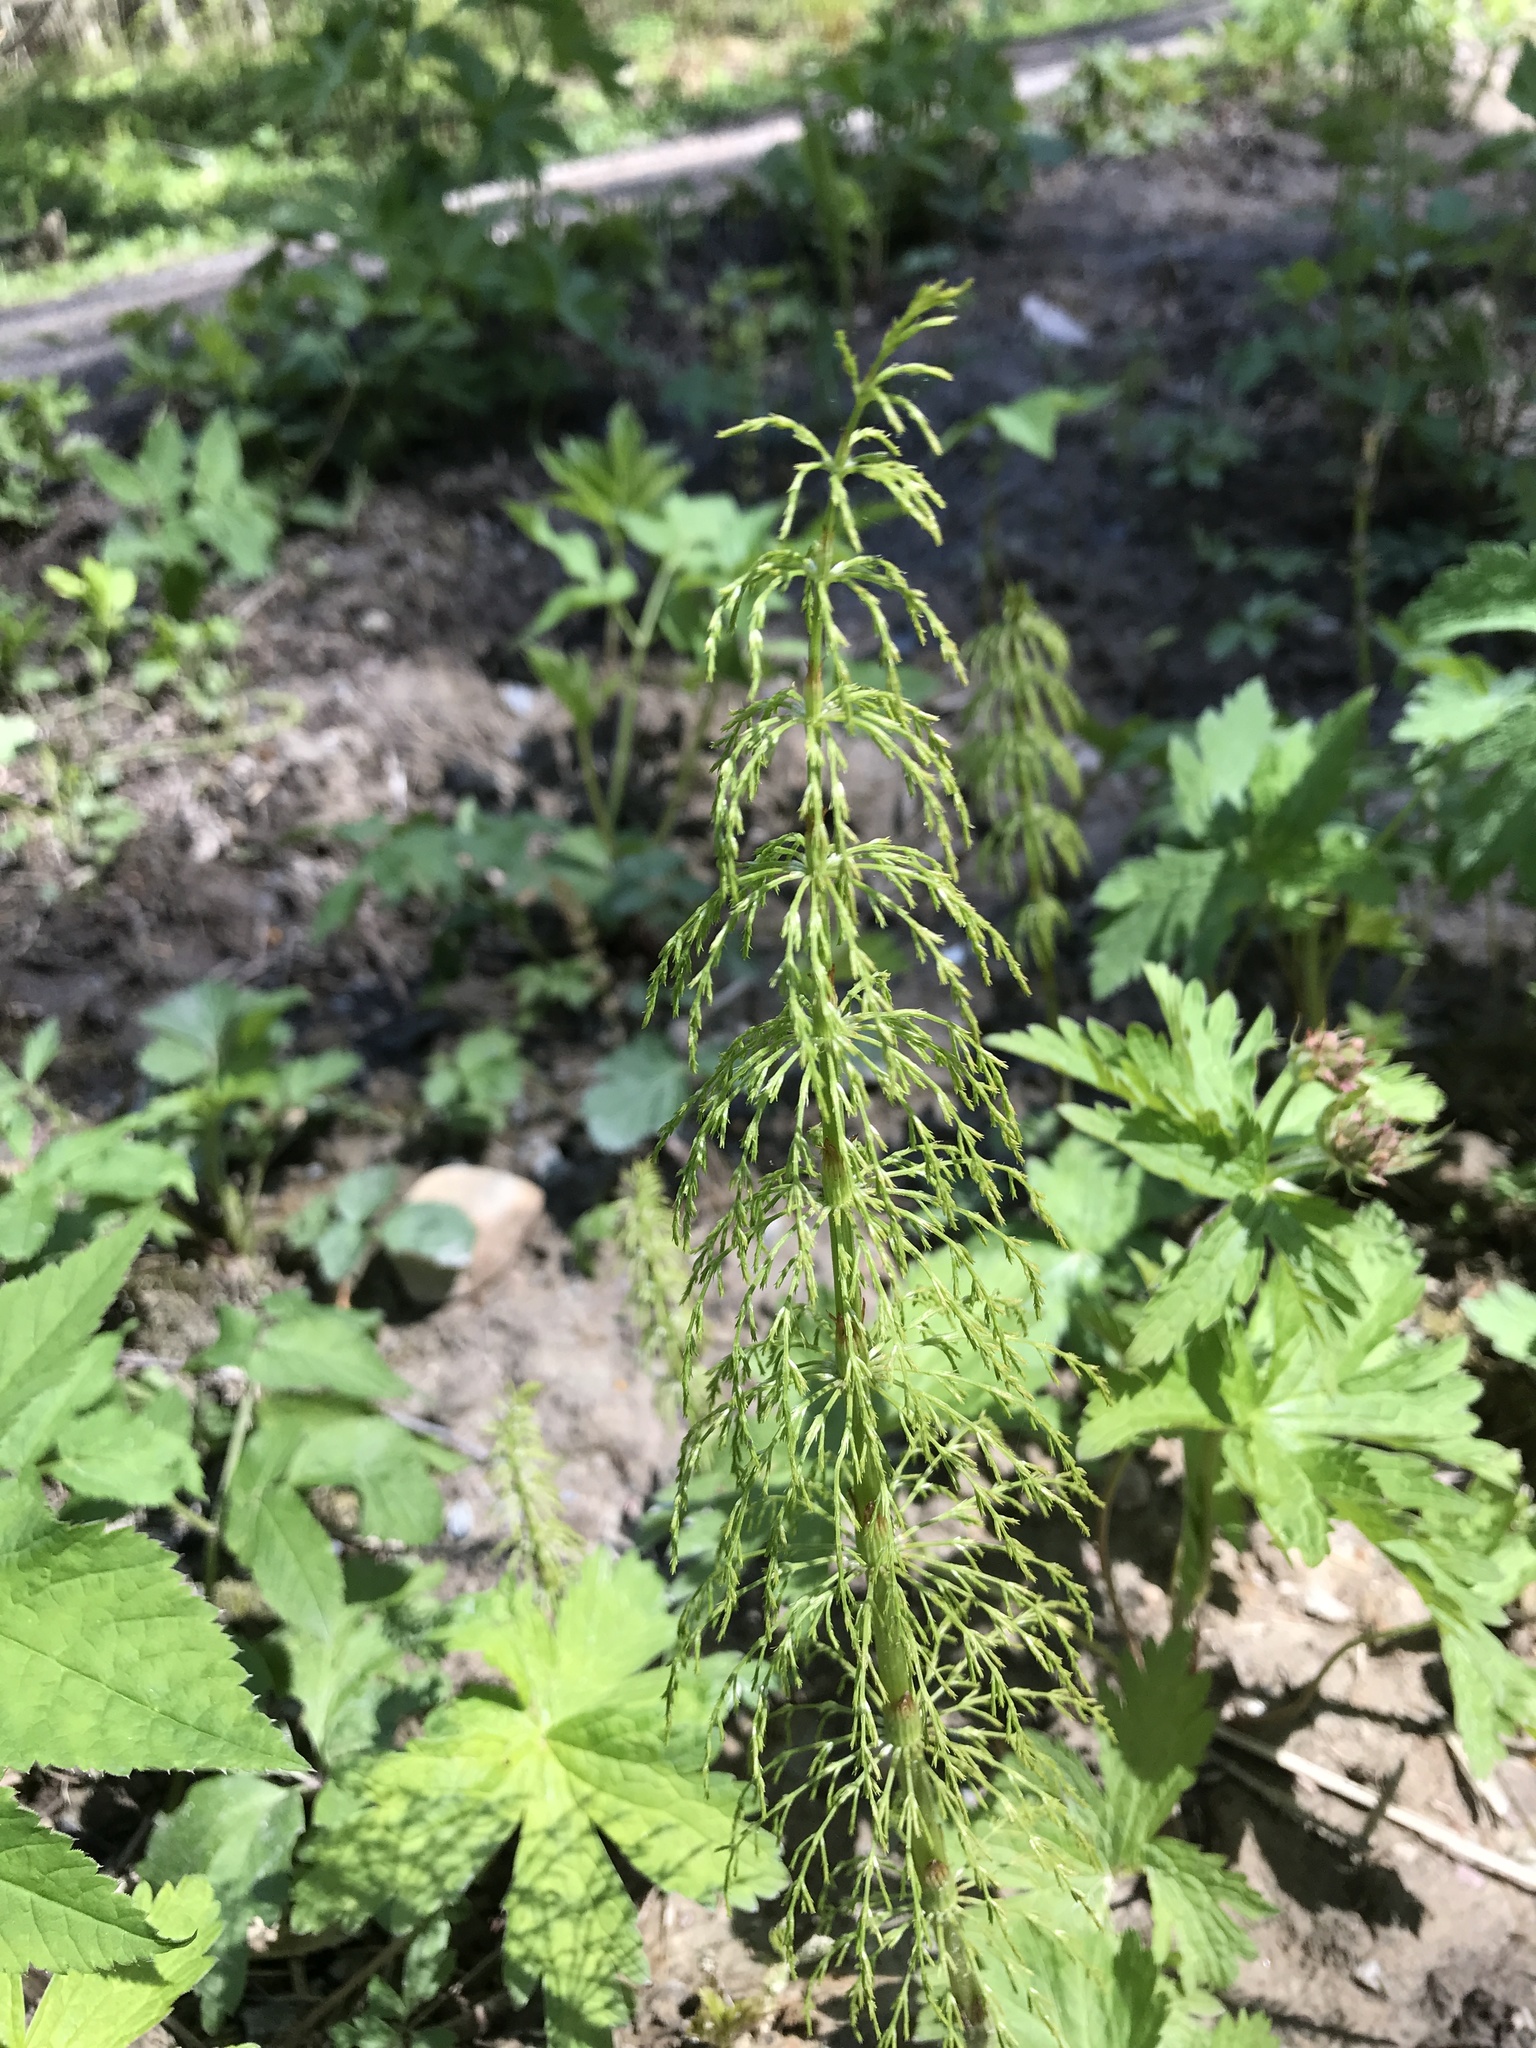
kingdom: Plantae
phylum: Tracheophyta
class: Polypodiopsida
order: Equisetales
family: Equisetaceae
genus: Equisetum
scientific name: Equisetum sylvaticum
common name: Wood horsetail
